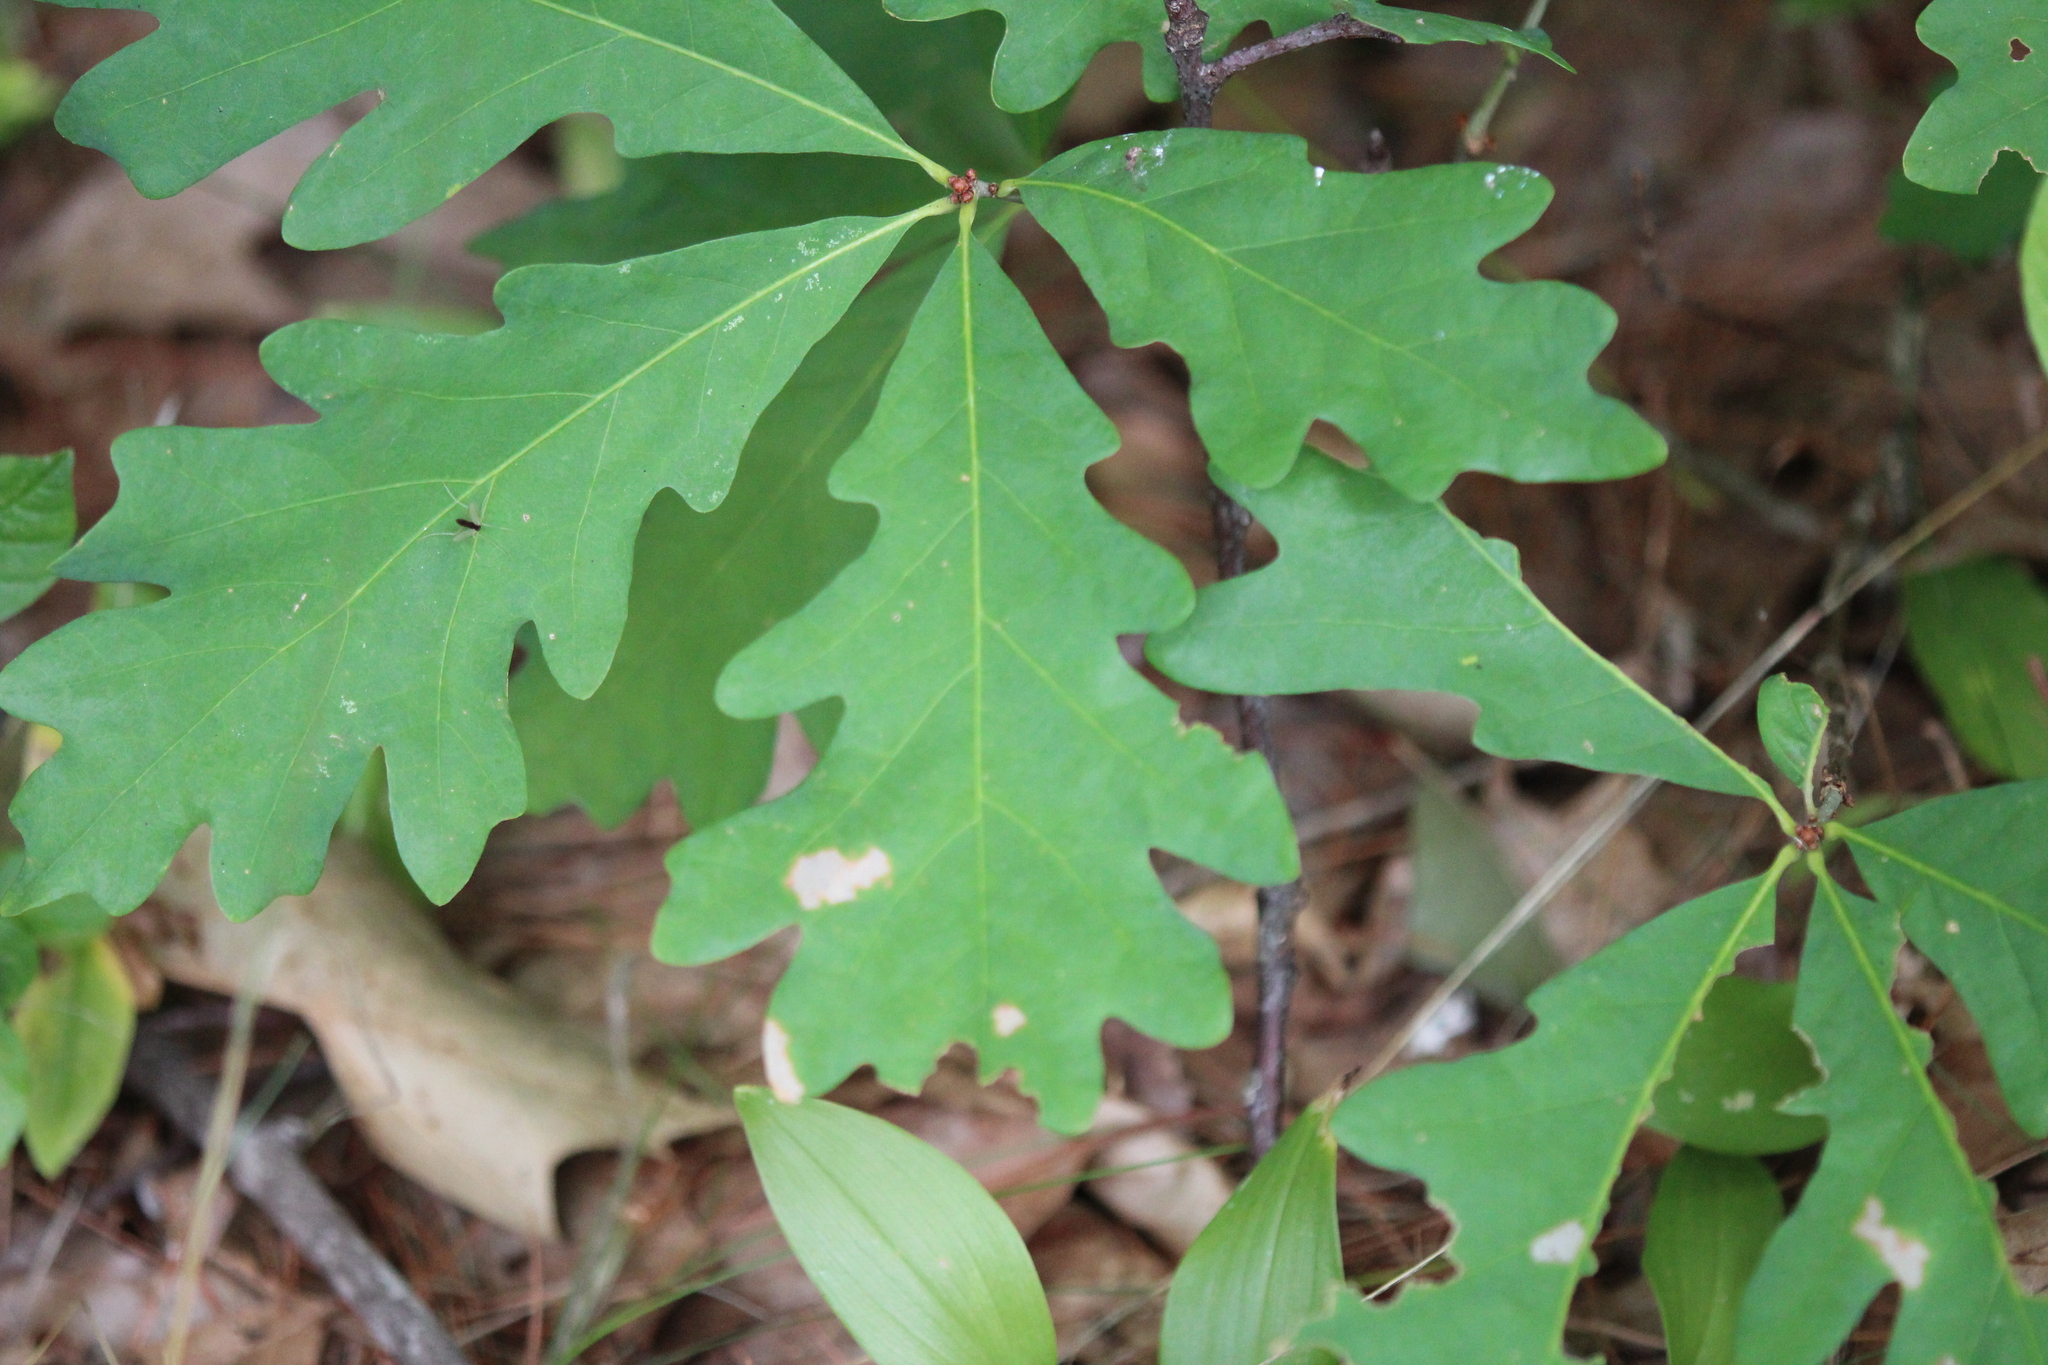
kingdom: Plantae
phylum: Tracheophyta
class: Magnoliopsida
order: Fagales
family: Fagaceae
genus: Quercus
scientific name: Quercus alba
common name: White oak
